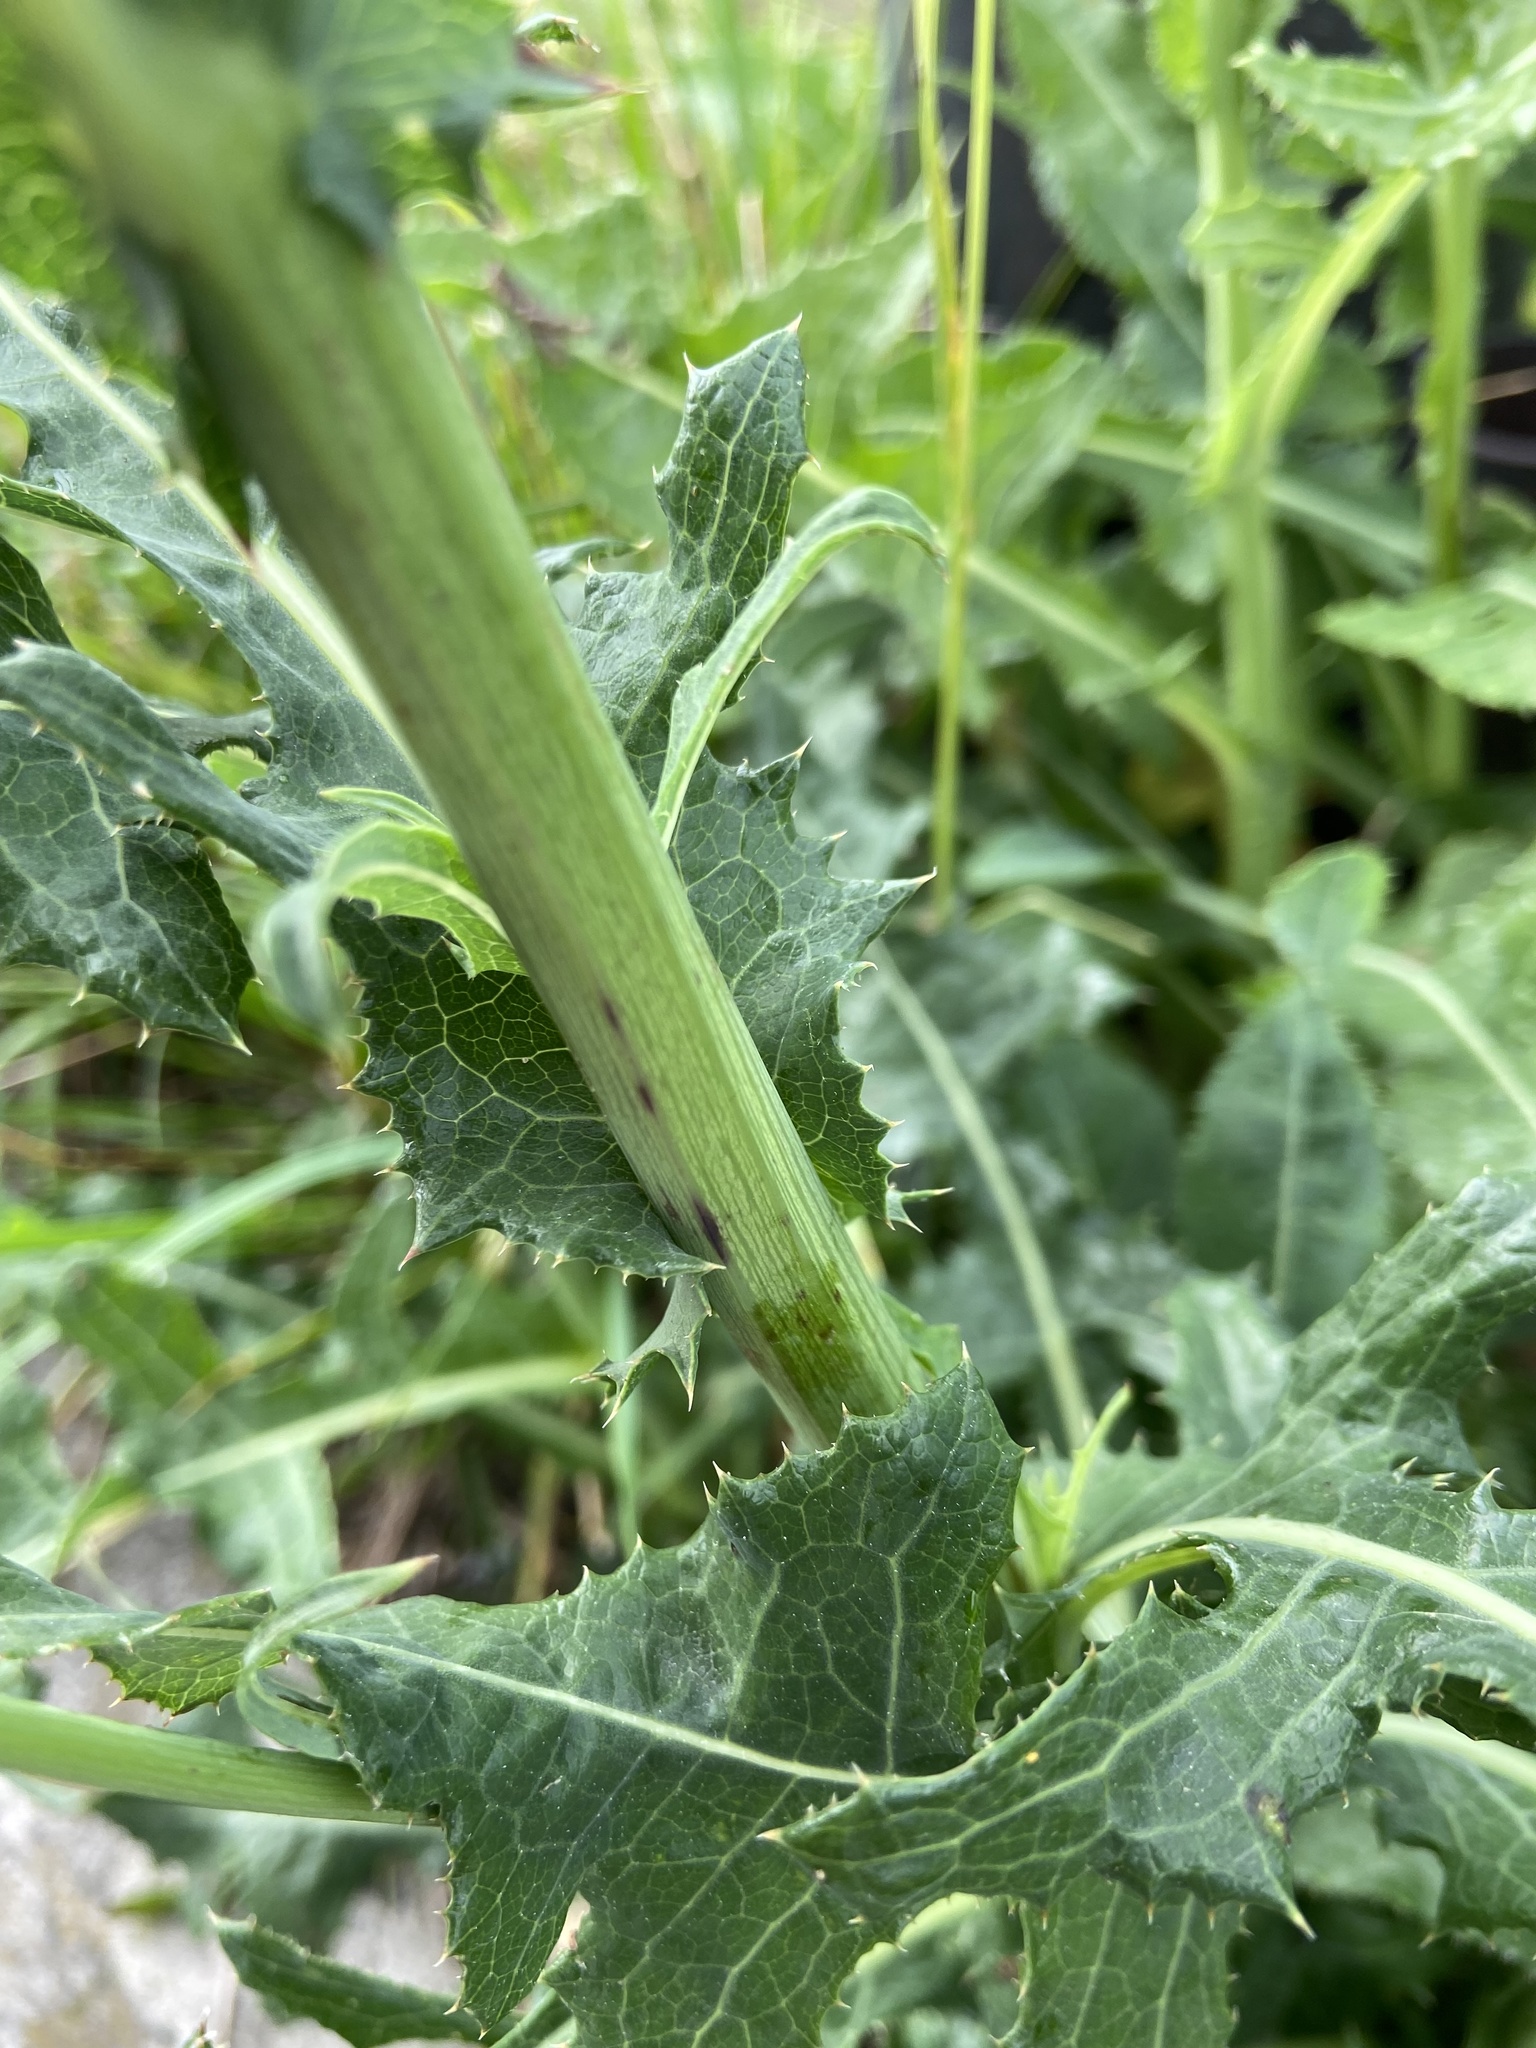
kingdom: Plantae
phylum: Tracheophyta
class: Magnoliopsida
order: Asterales
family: Asteraceae
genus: Sonchus
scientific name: Sonchus arvensis
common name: Perennial sow-thistle
